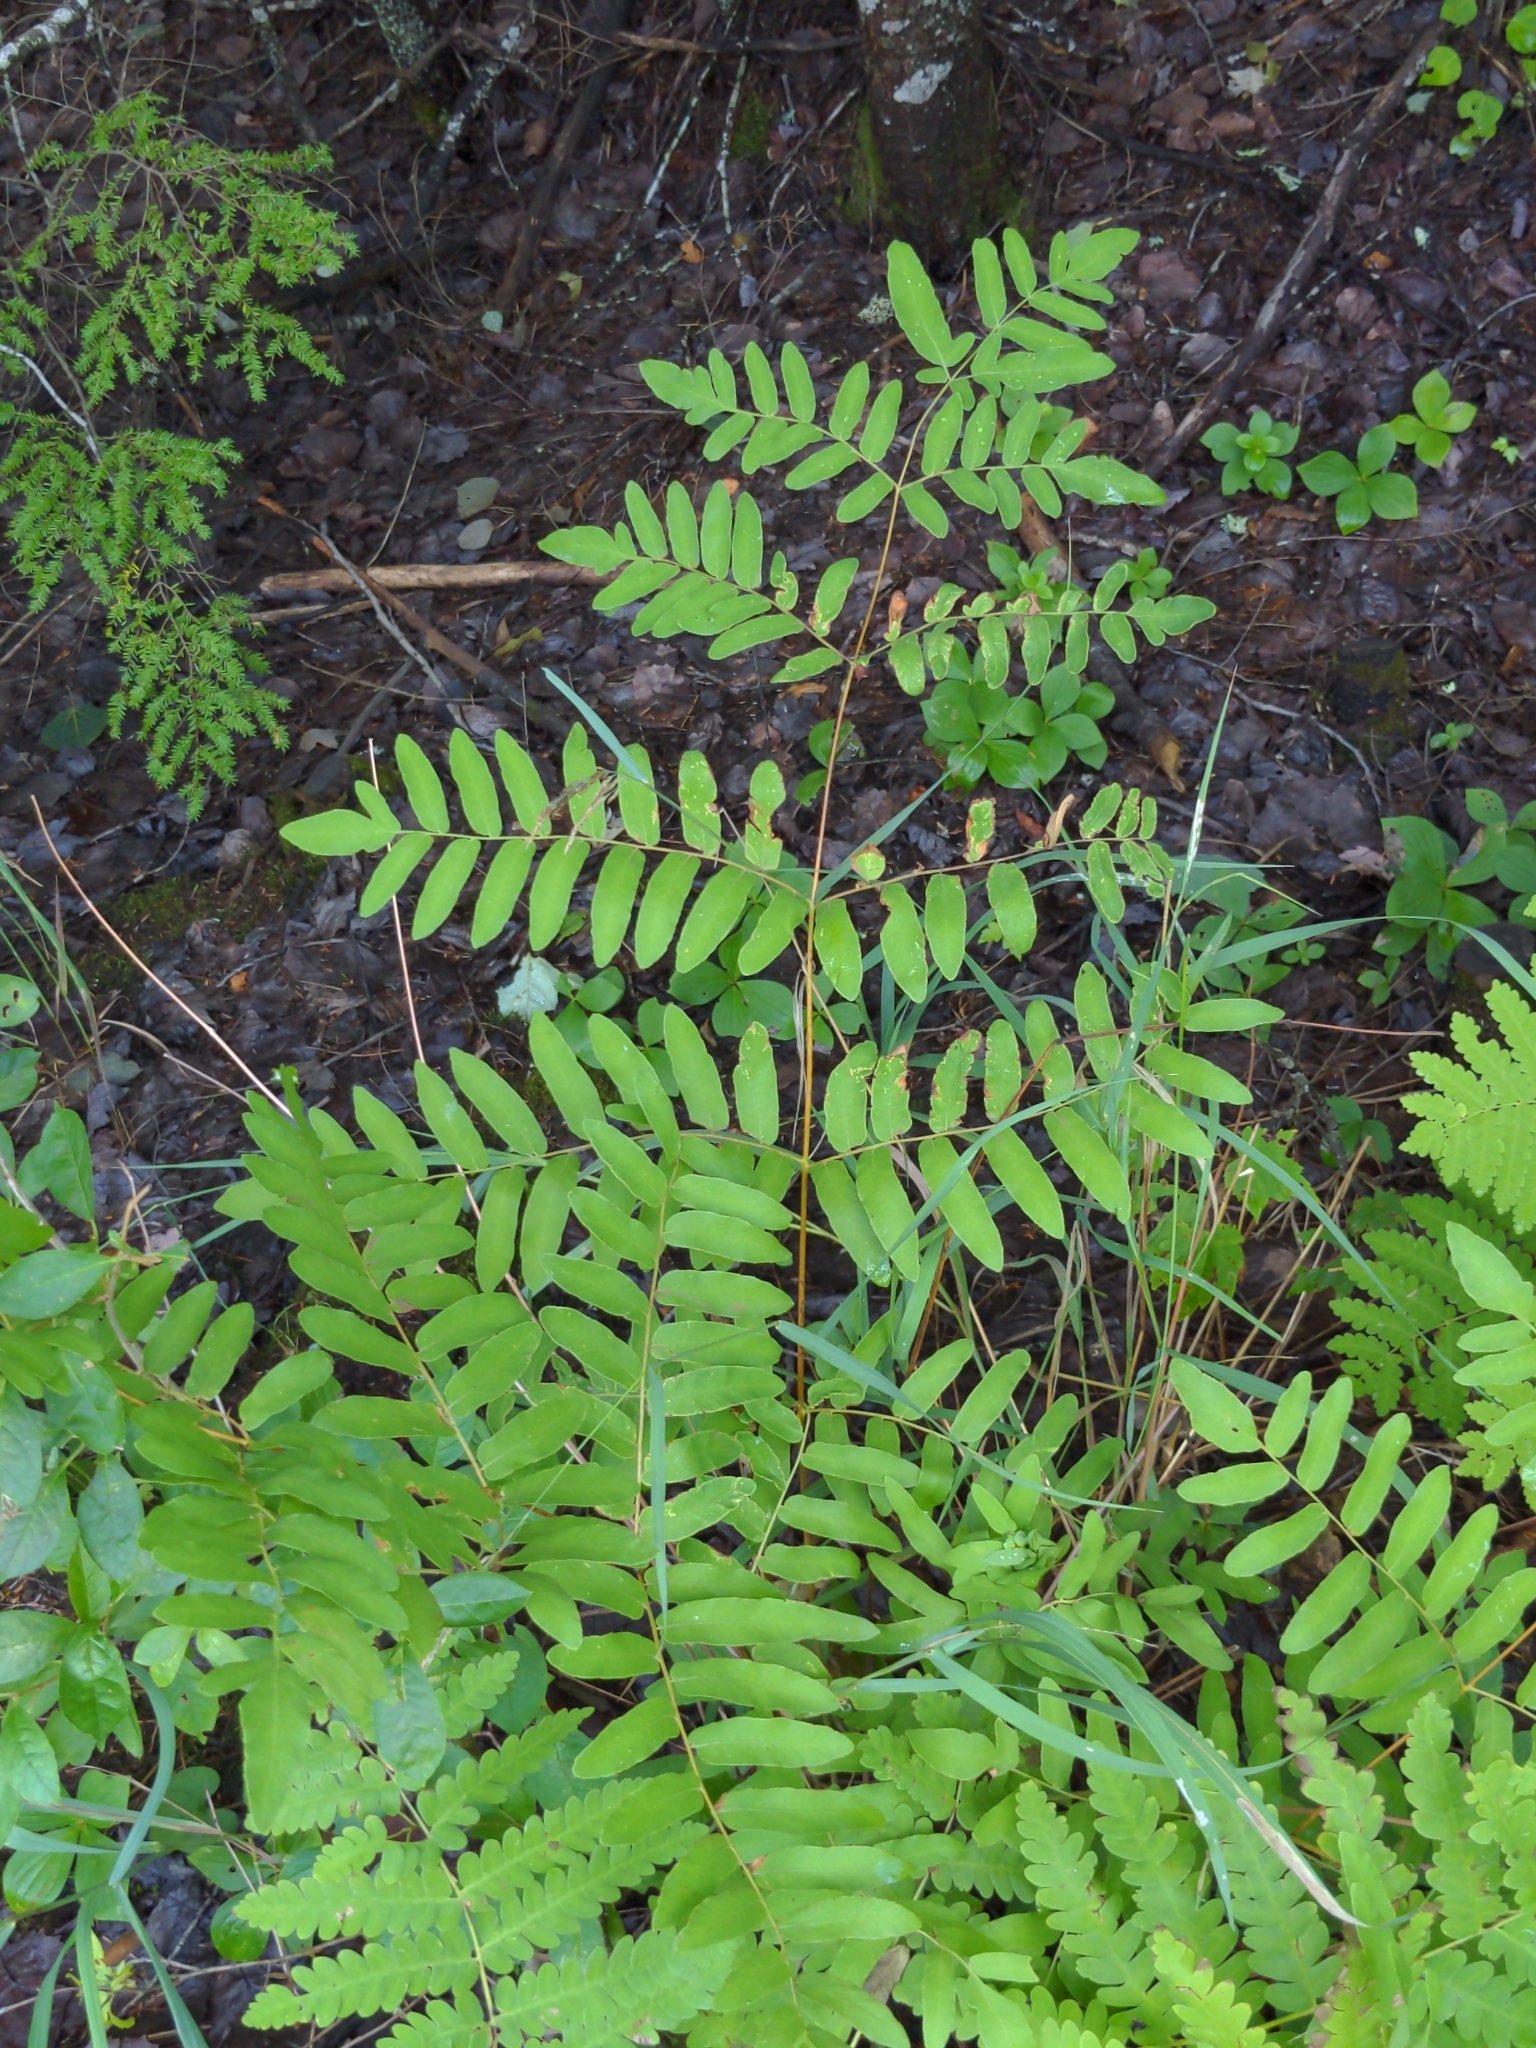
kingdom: Plantae
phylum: Tracheophyta
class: Polypodiopsida
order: Osmundales
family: Osmundaceae
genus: Osmunda
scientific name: Osmunda spectabilis
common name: American royal fern
